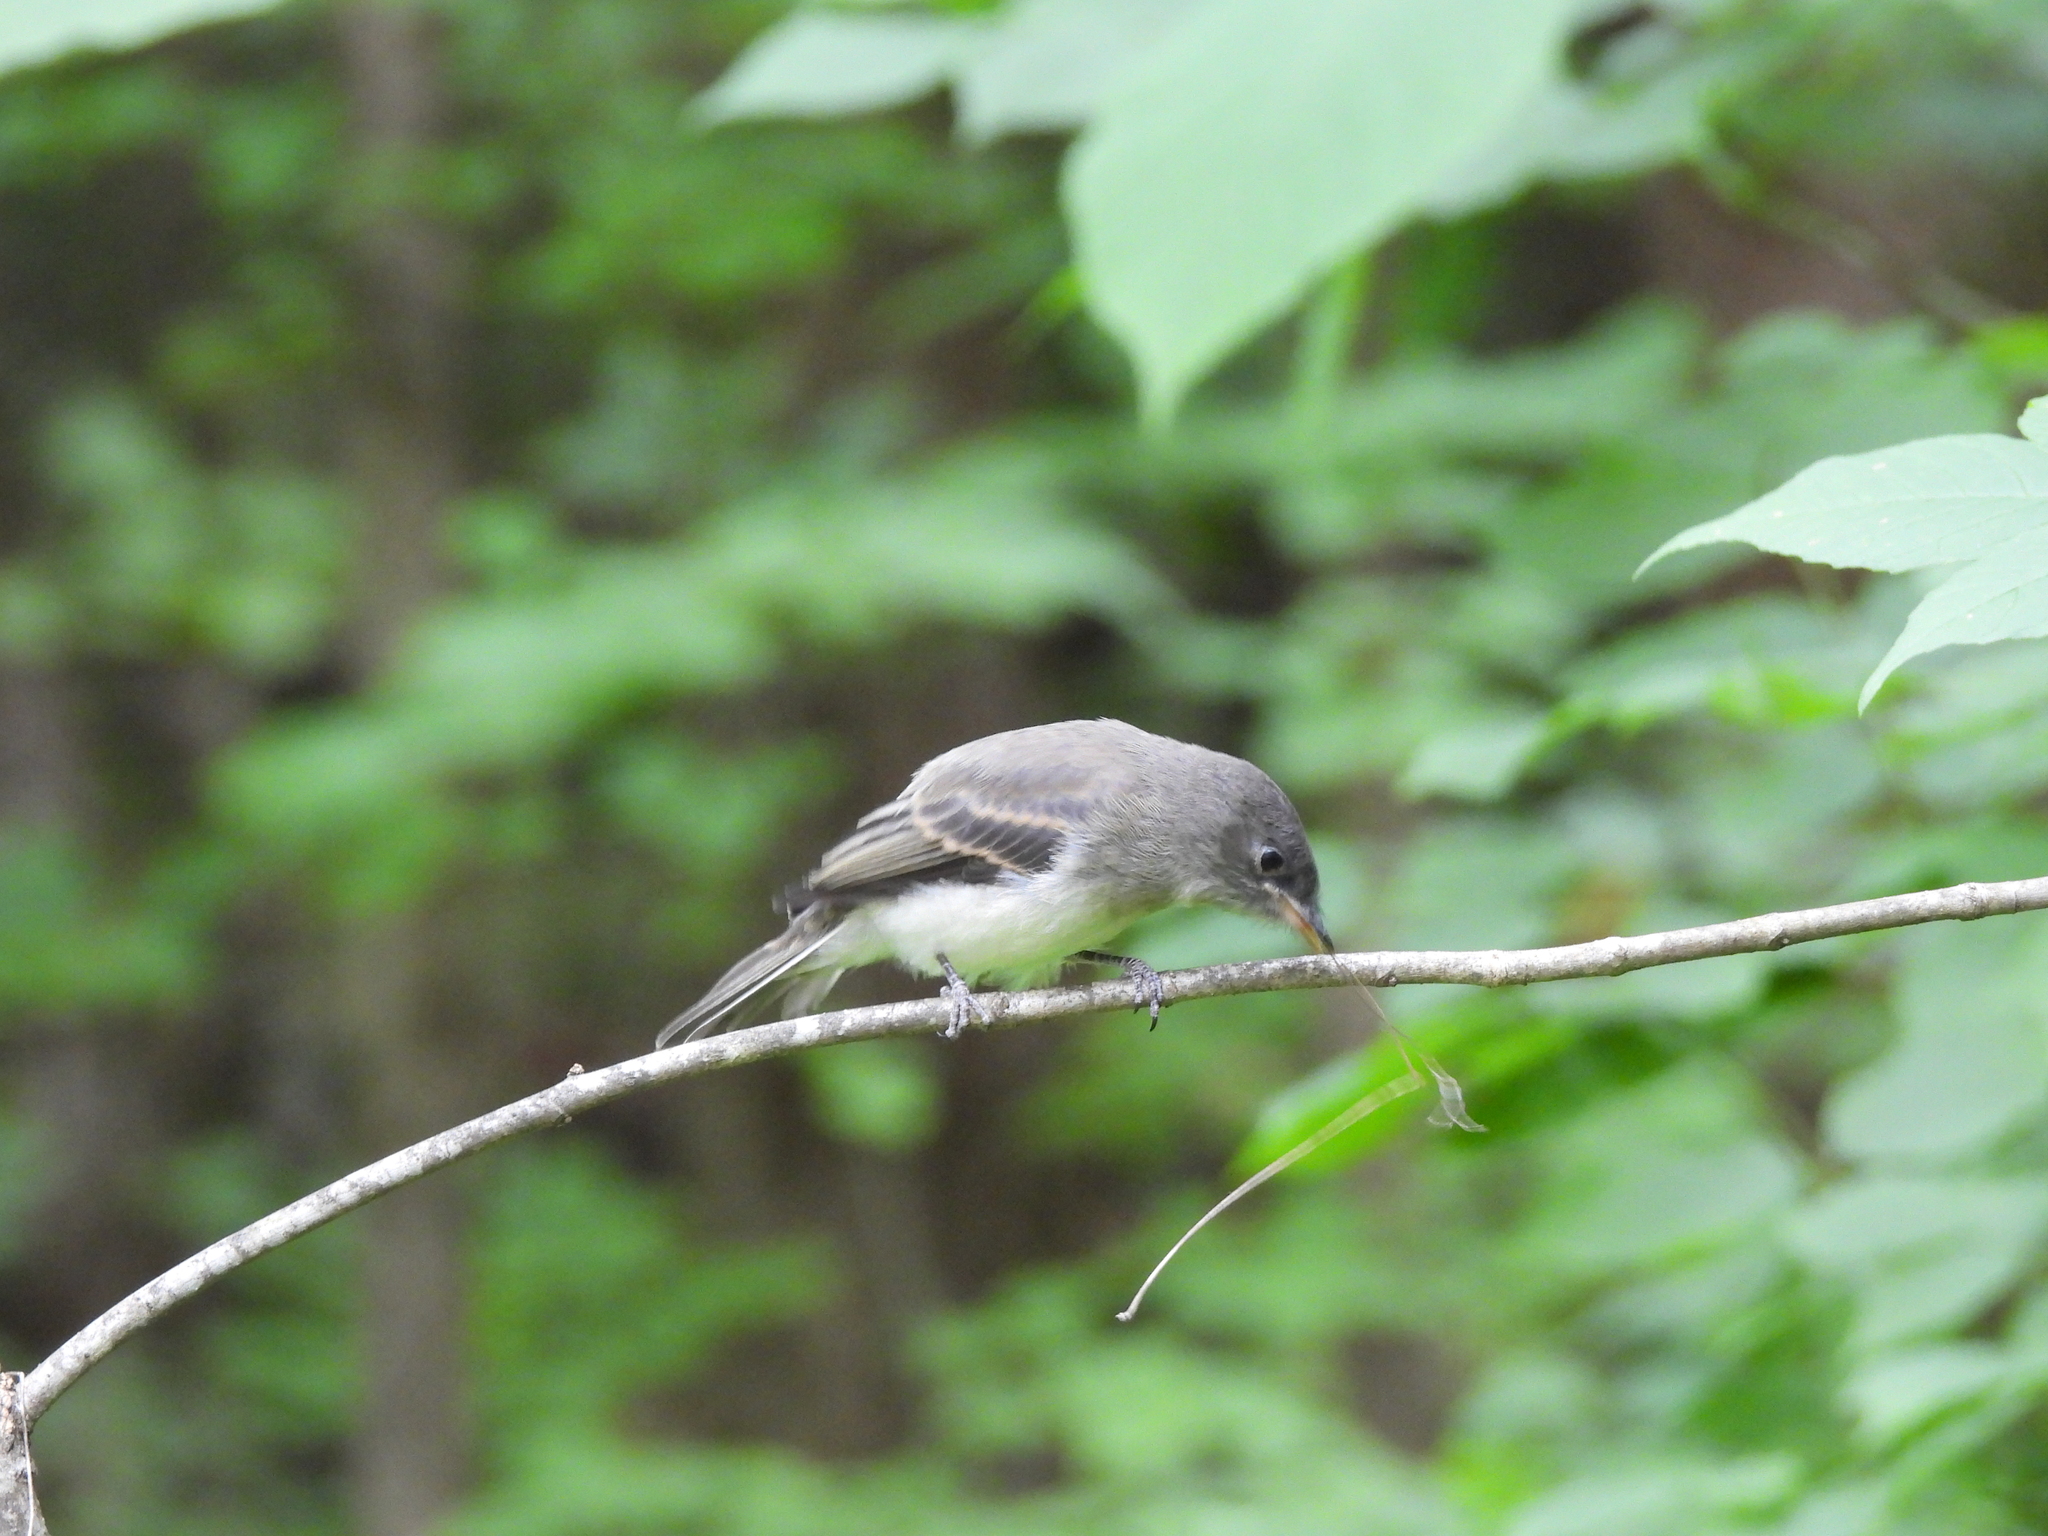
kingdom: Animalia
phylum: Chordata
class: Aves
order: Passeriformes
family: Tyrannidae
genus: Contopus
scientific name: Contopus virens
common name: Eastern wood-pewee
